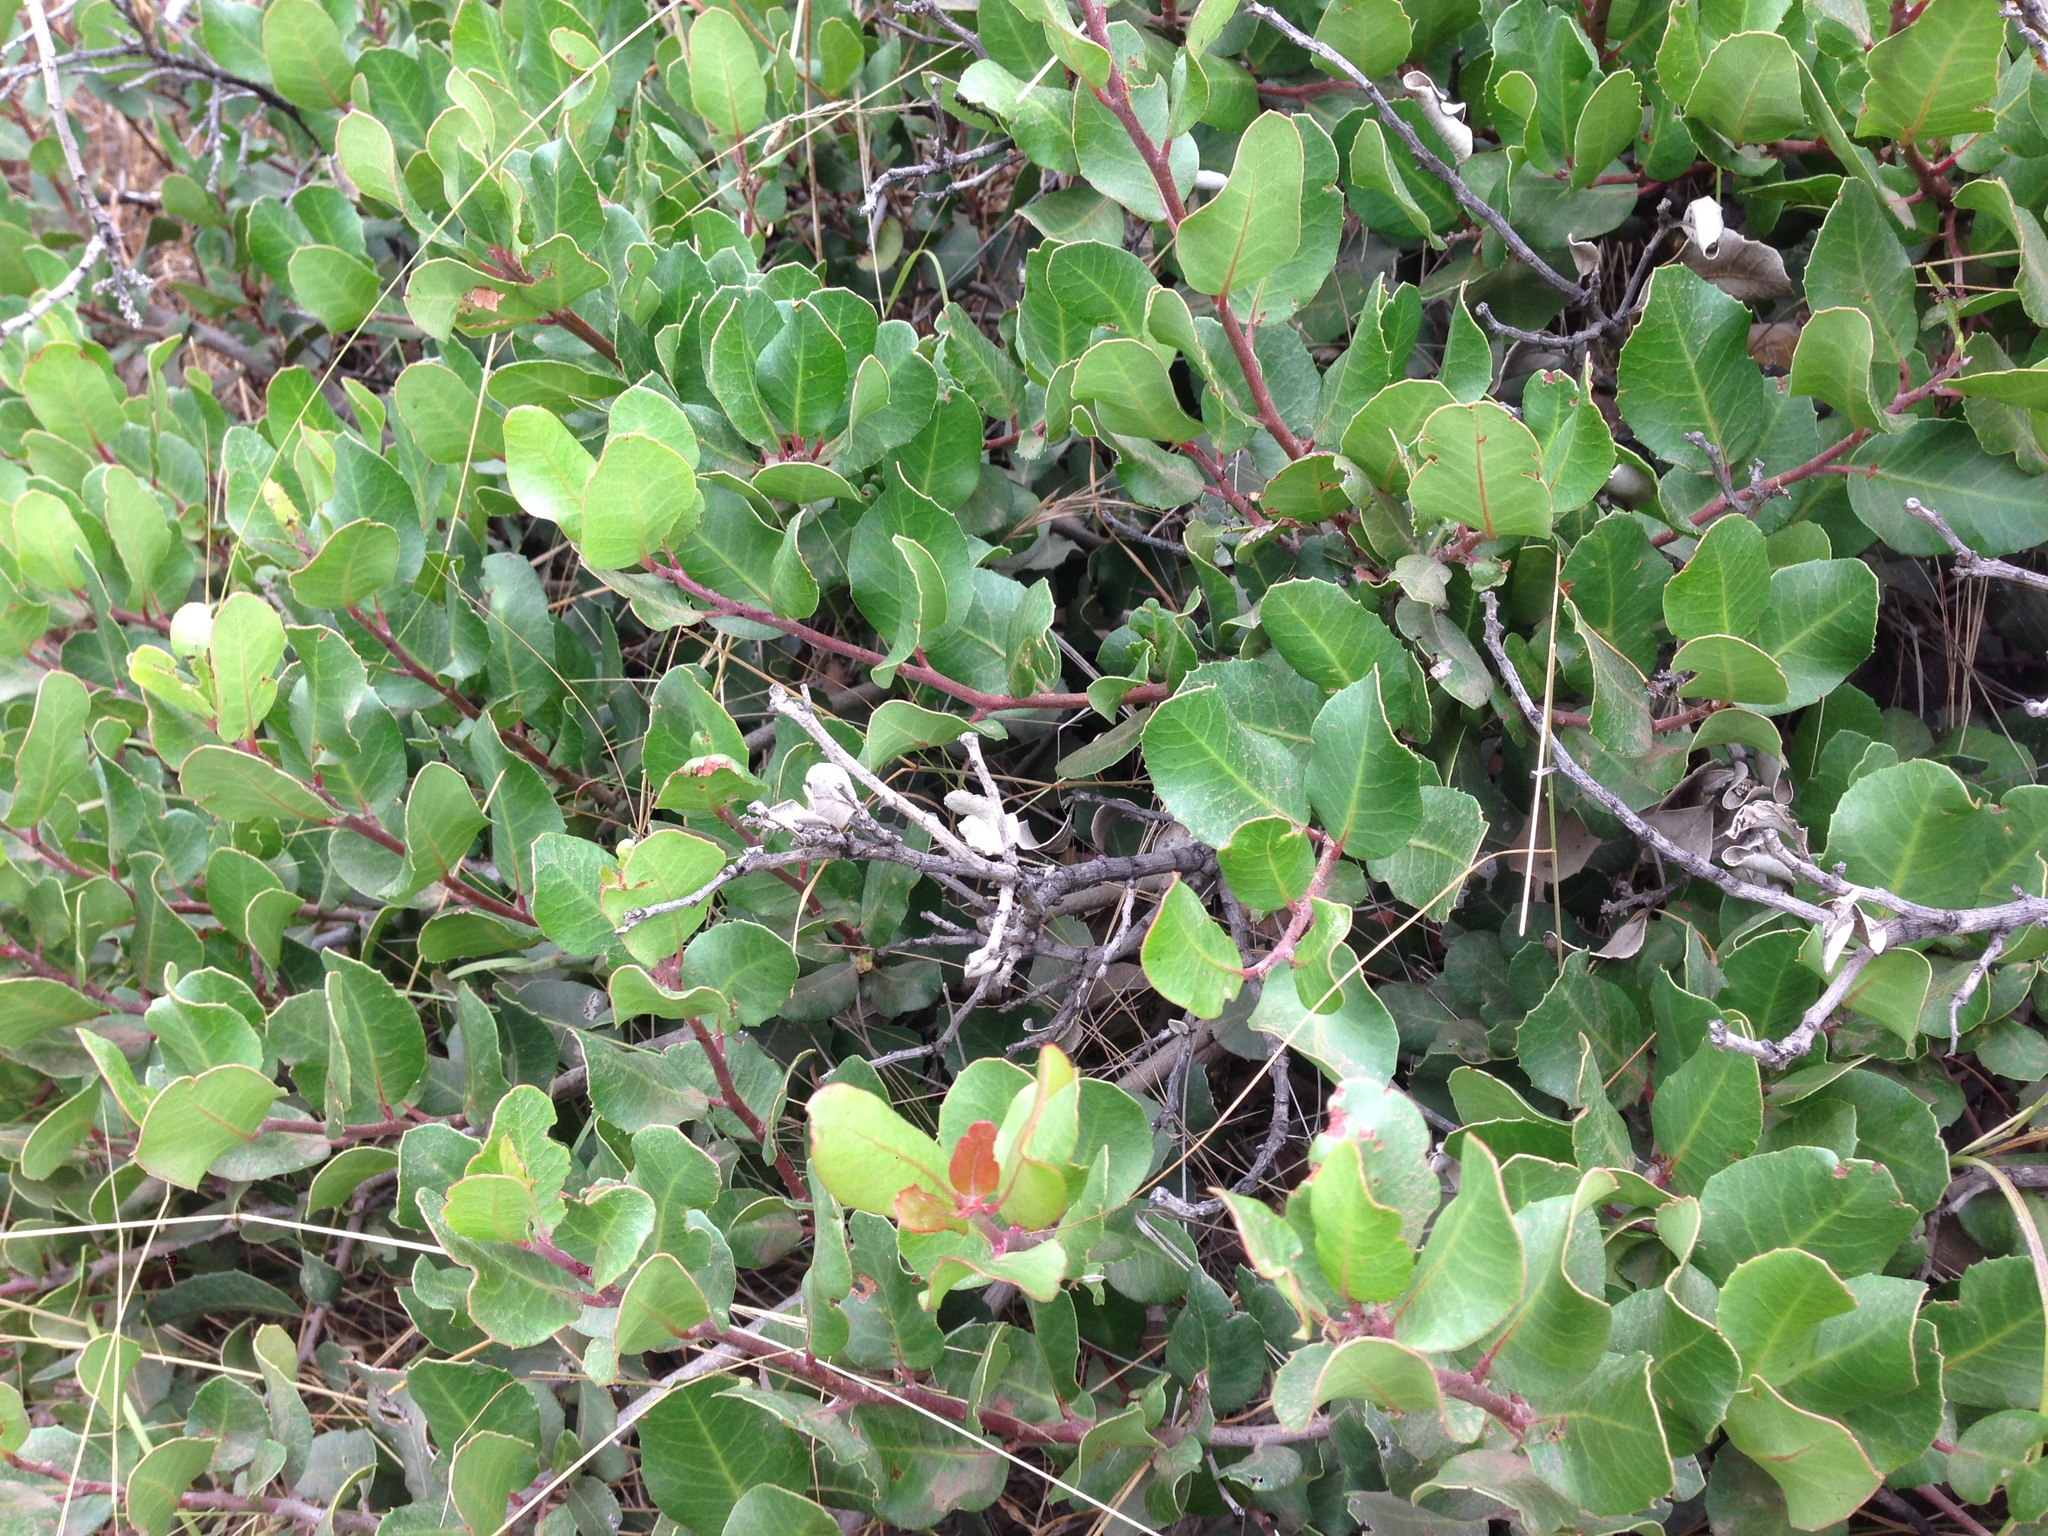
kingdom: Plantae
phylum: Tracheophyta
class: Magnoliopsida
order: Sapindales
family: Anacardiaceae
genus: Rhus
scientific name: Rhus integrifolia
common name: Lemonade sumac
